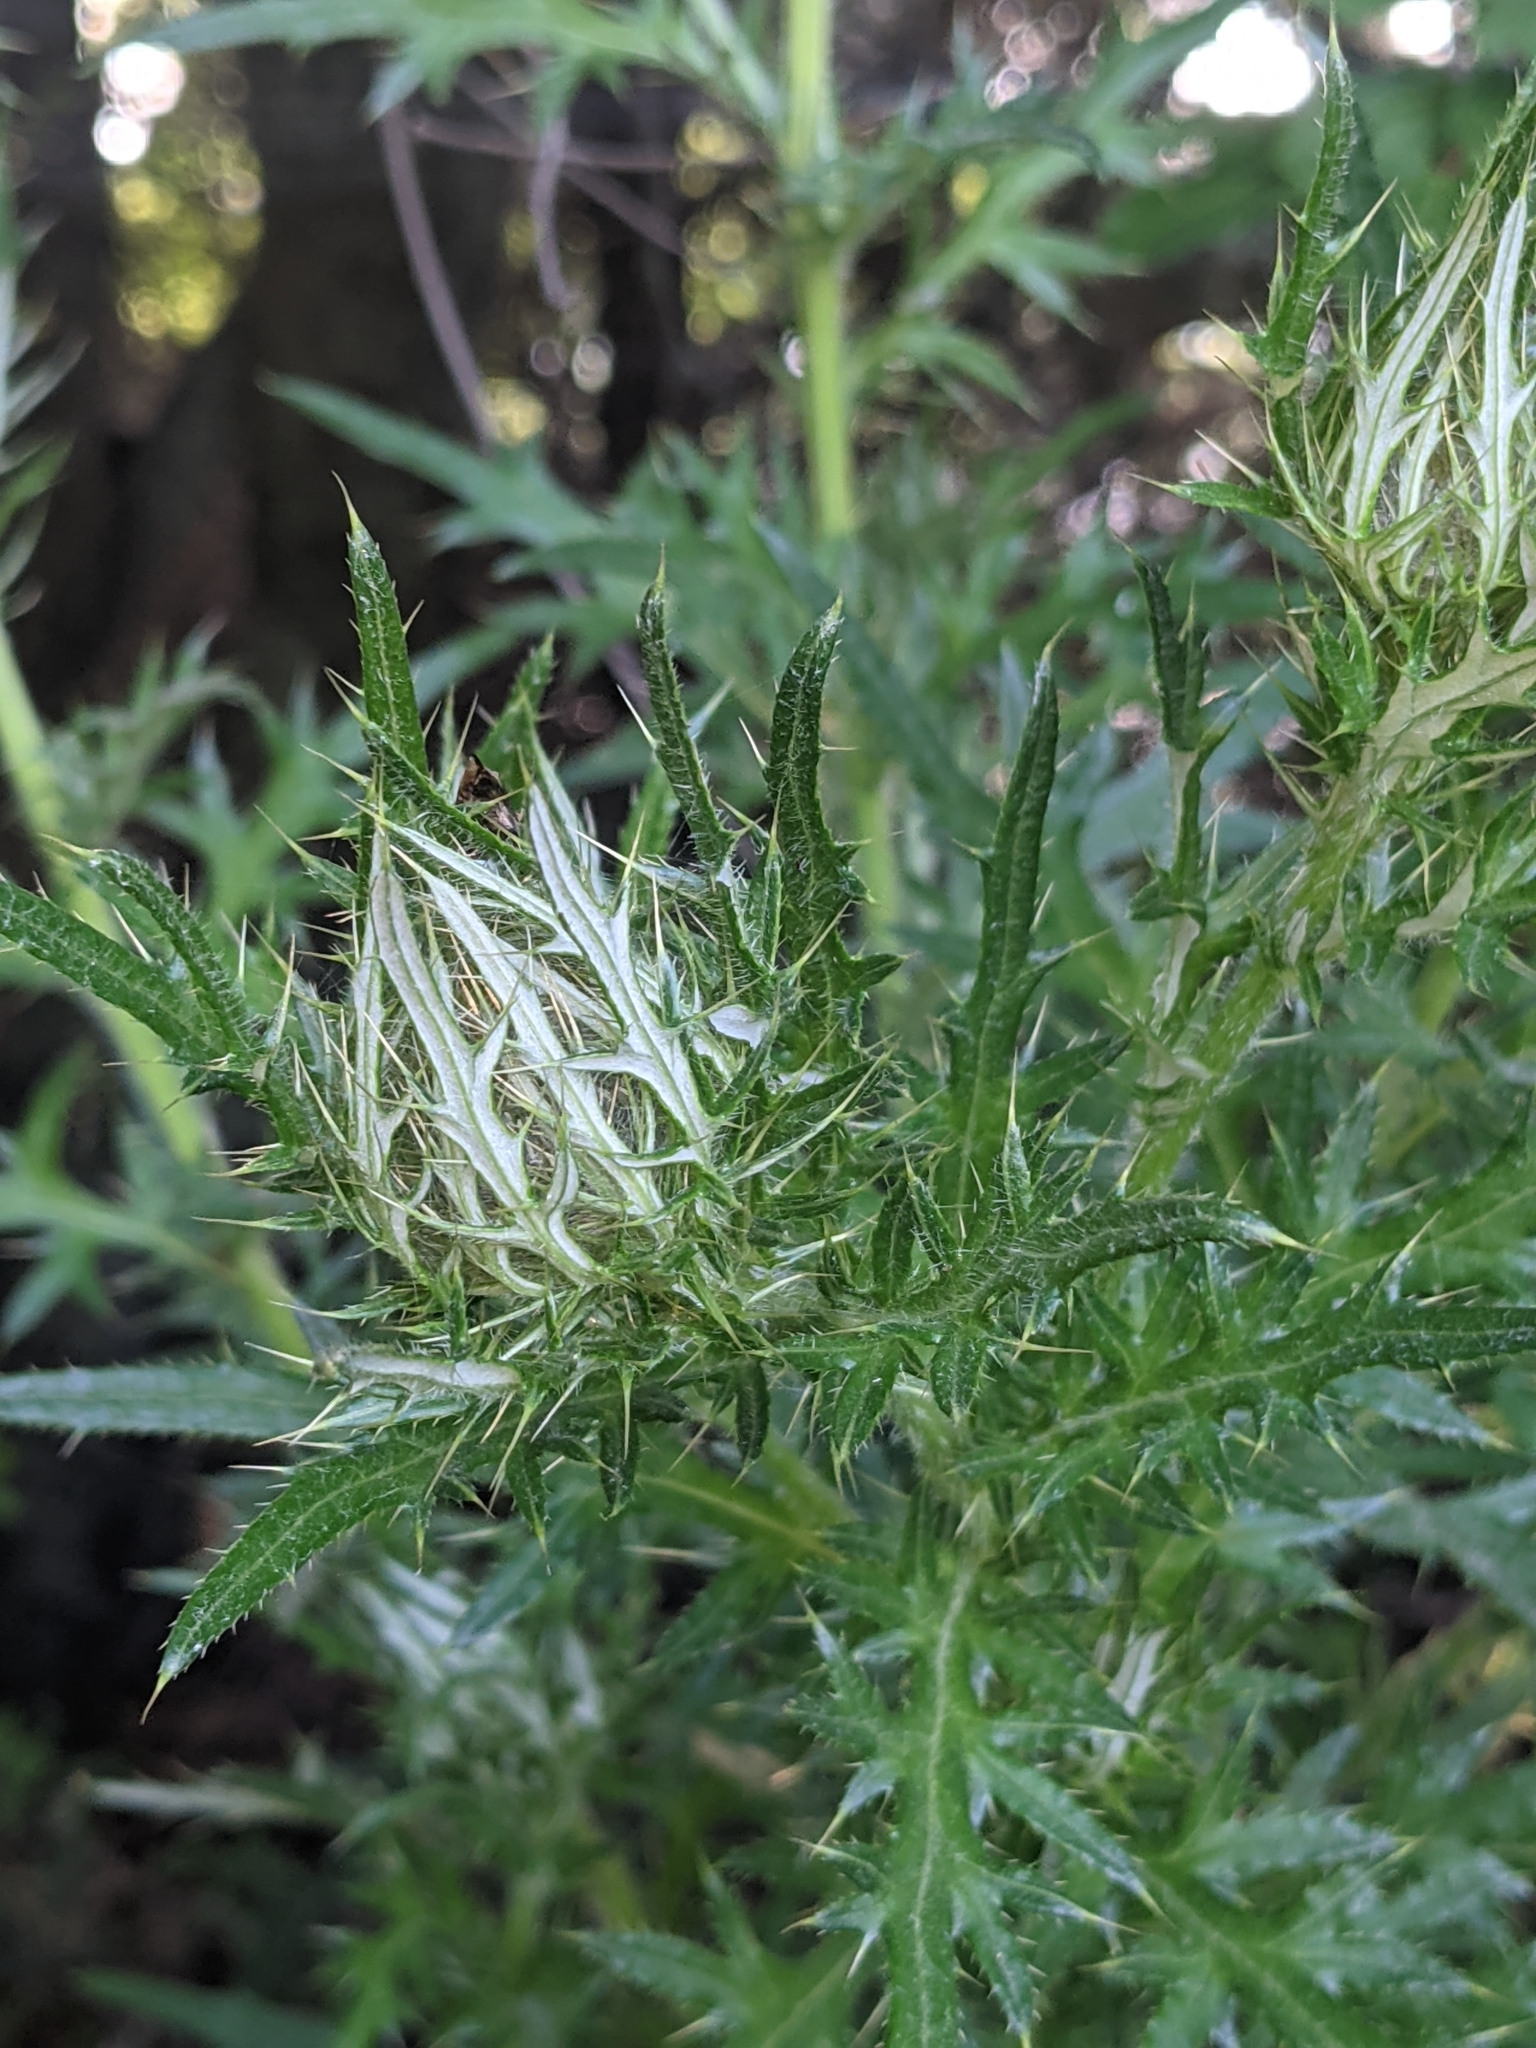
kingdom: Plantae
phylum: Tracheophyta
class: Magnoliopsida
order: Asterales
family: Asteraceae
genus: Cirsium
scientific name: Cirsium discolor
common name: Field thistle
